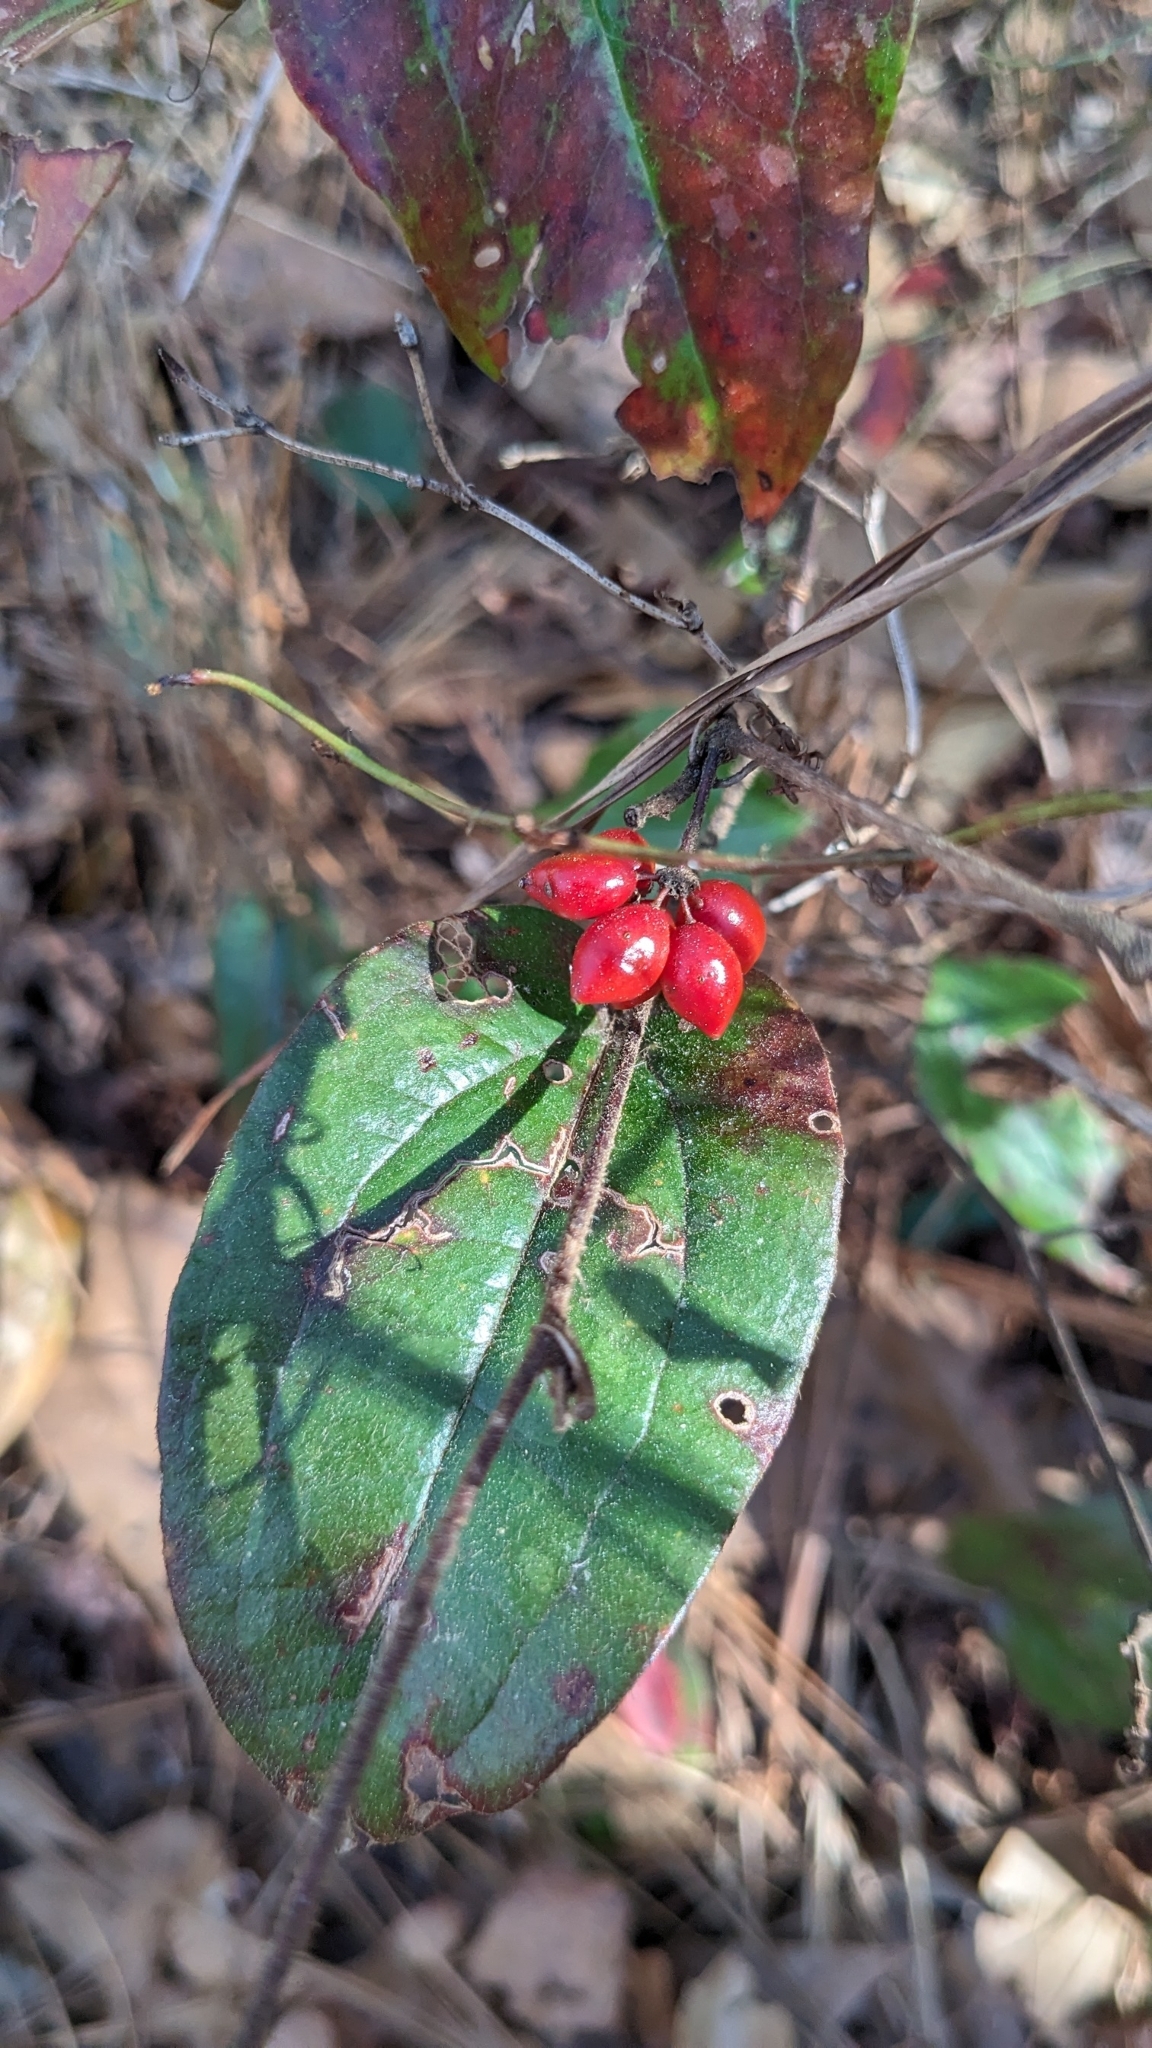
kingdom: Plantae
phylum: Tracheophyta
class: Liliopsida
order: Liliales
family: Smilacaceae
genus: Smilax
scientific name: Smilax pumila
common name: Sarsaparilla-vine
